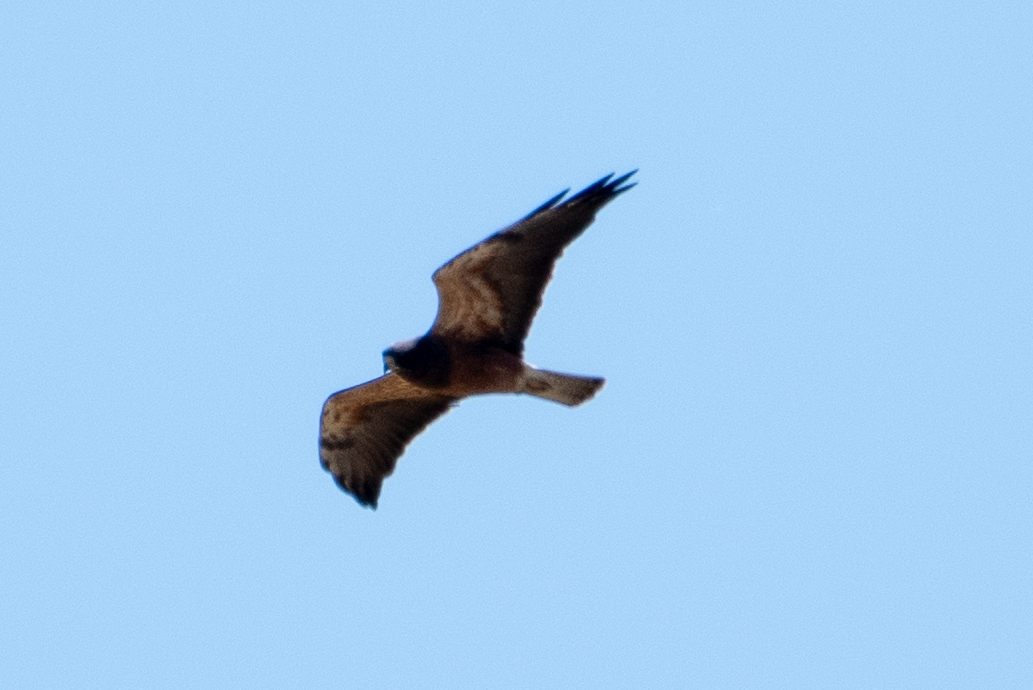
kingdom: Animalia
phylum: Chordata
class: Aves
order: Accipitriformes
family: Accipitridae
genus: Buteo
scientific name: Buteo swainsoni
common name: Swainson's hawk
